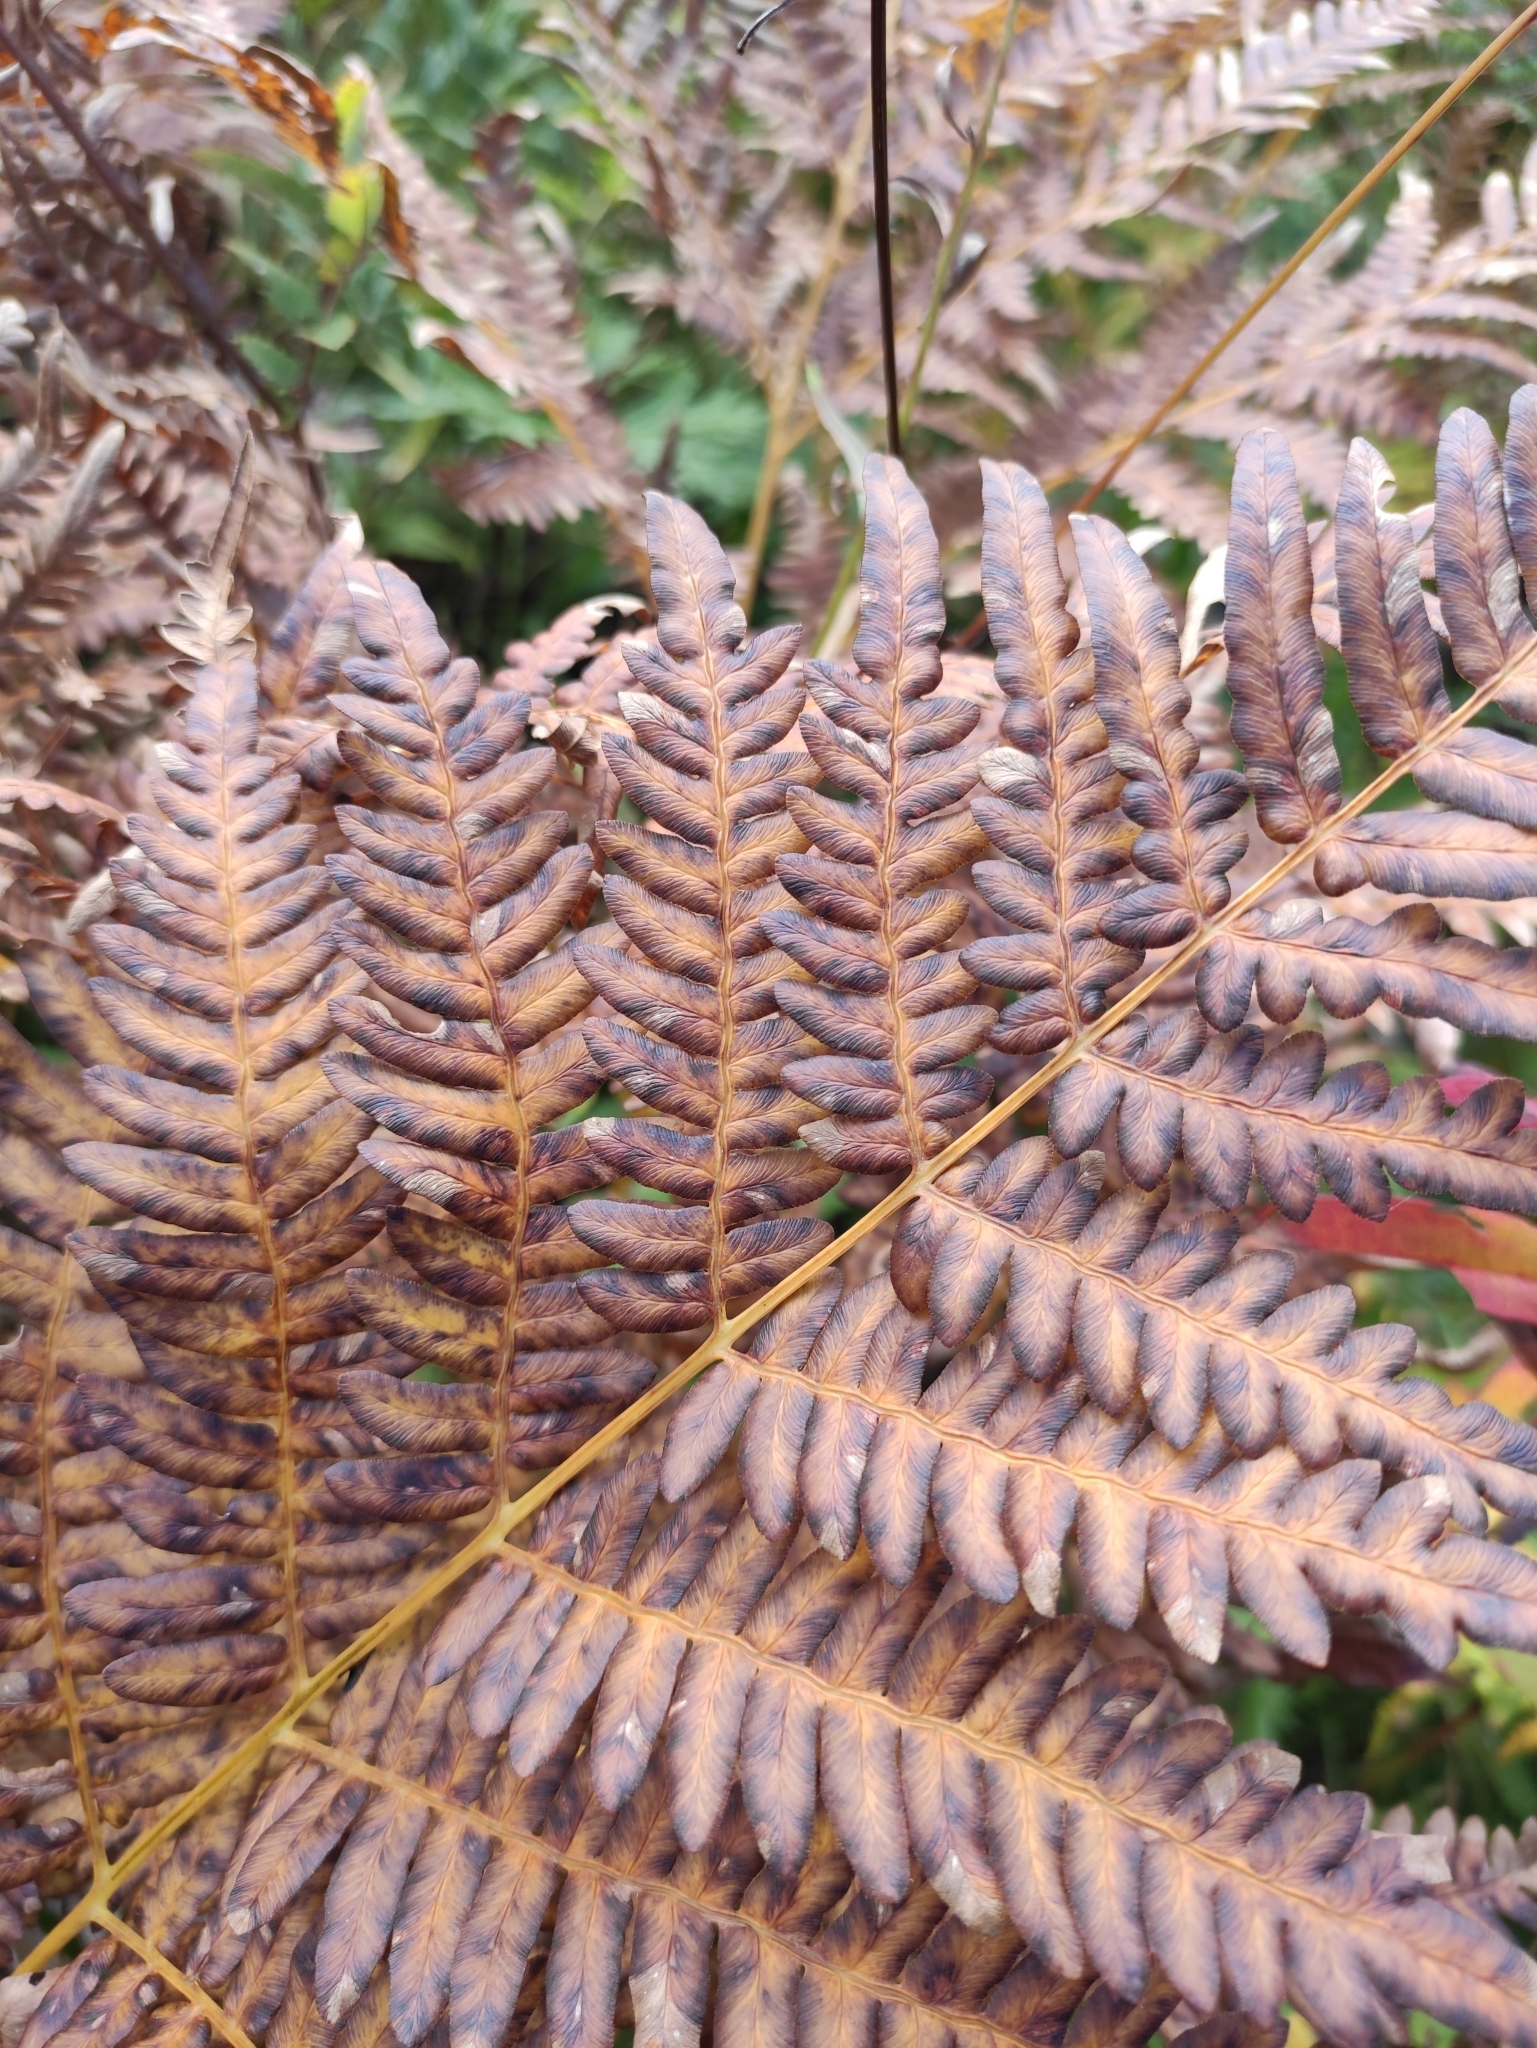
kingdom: Plantae
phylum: Tracheophyta
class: Polypodiopsida
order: Polypodiales
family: Dennstaedtiaceae
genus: Pteridium
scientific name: Pteridium aquilinum
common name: Bracken
